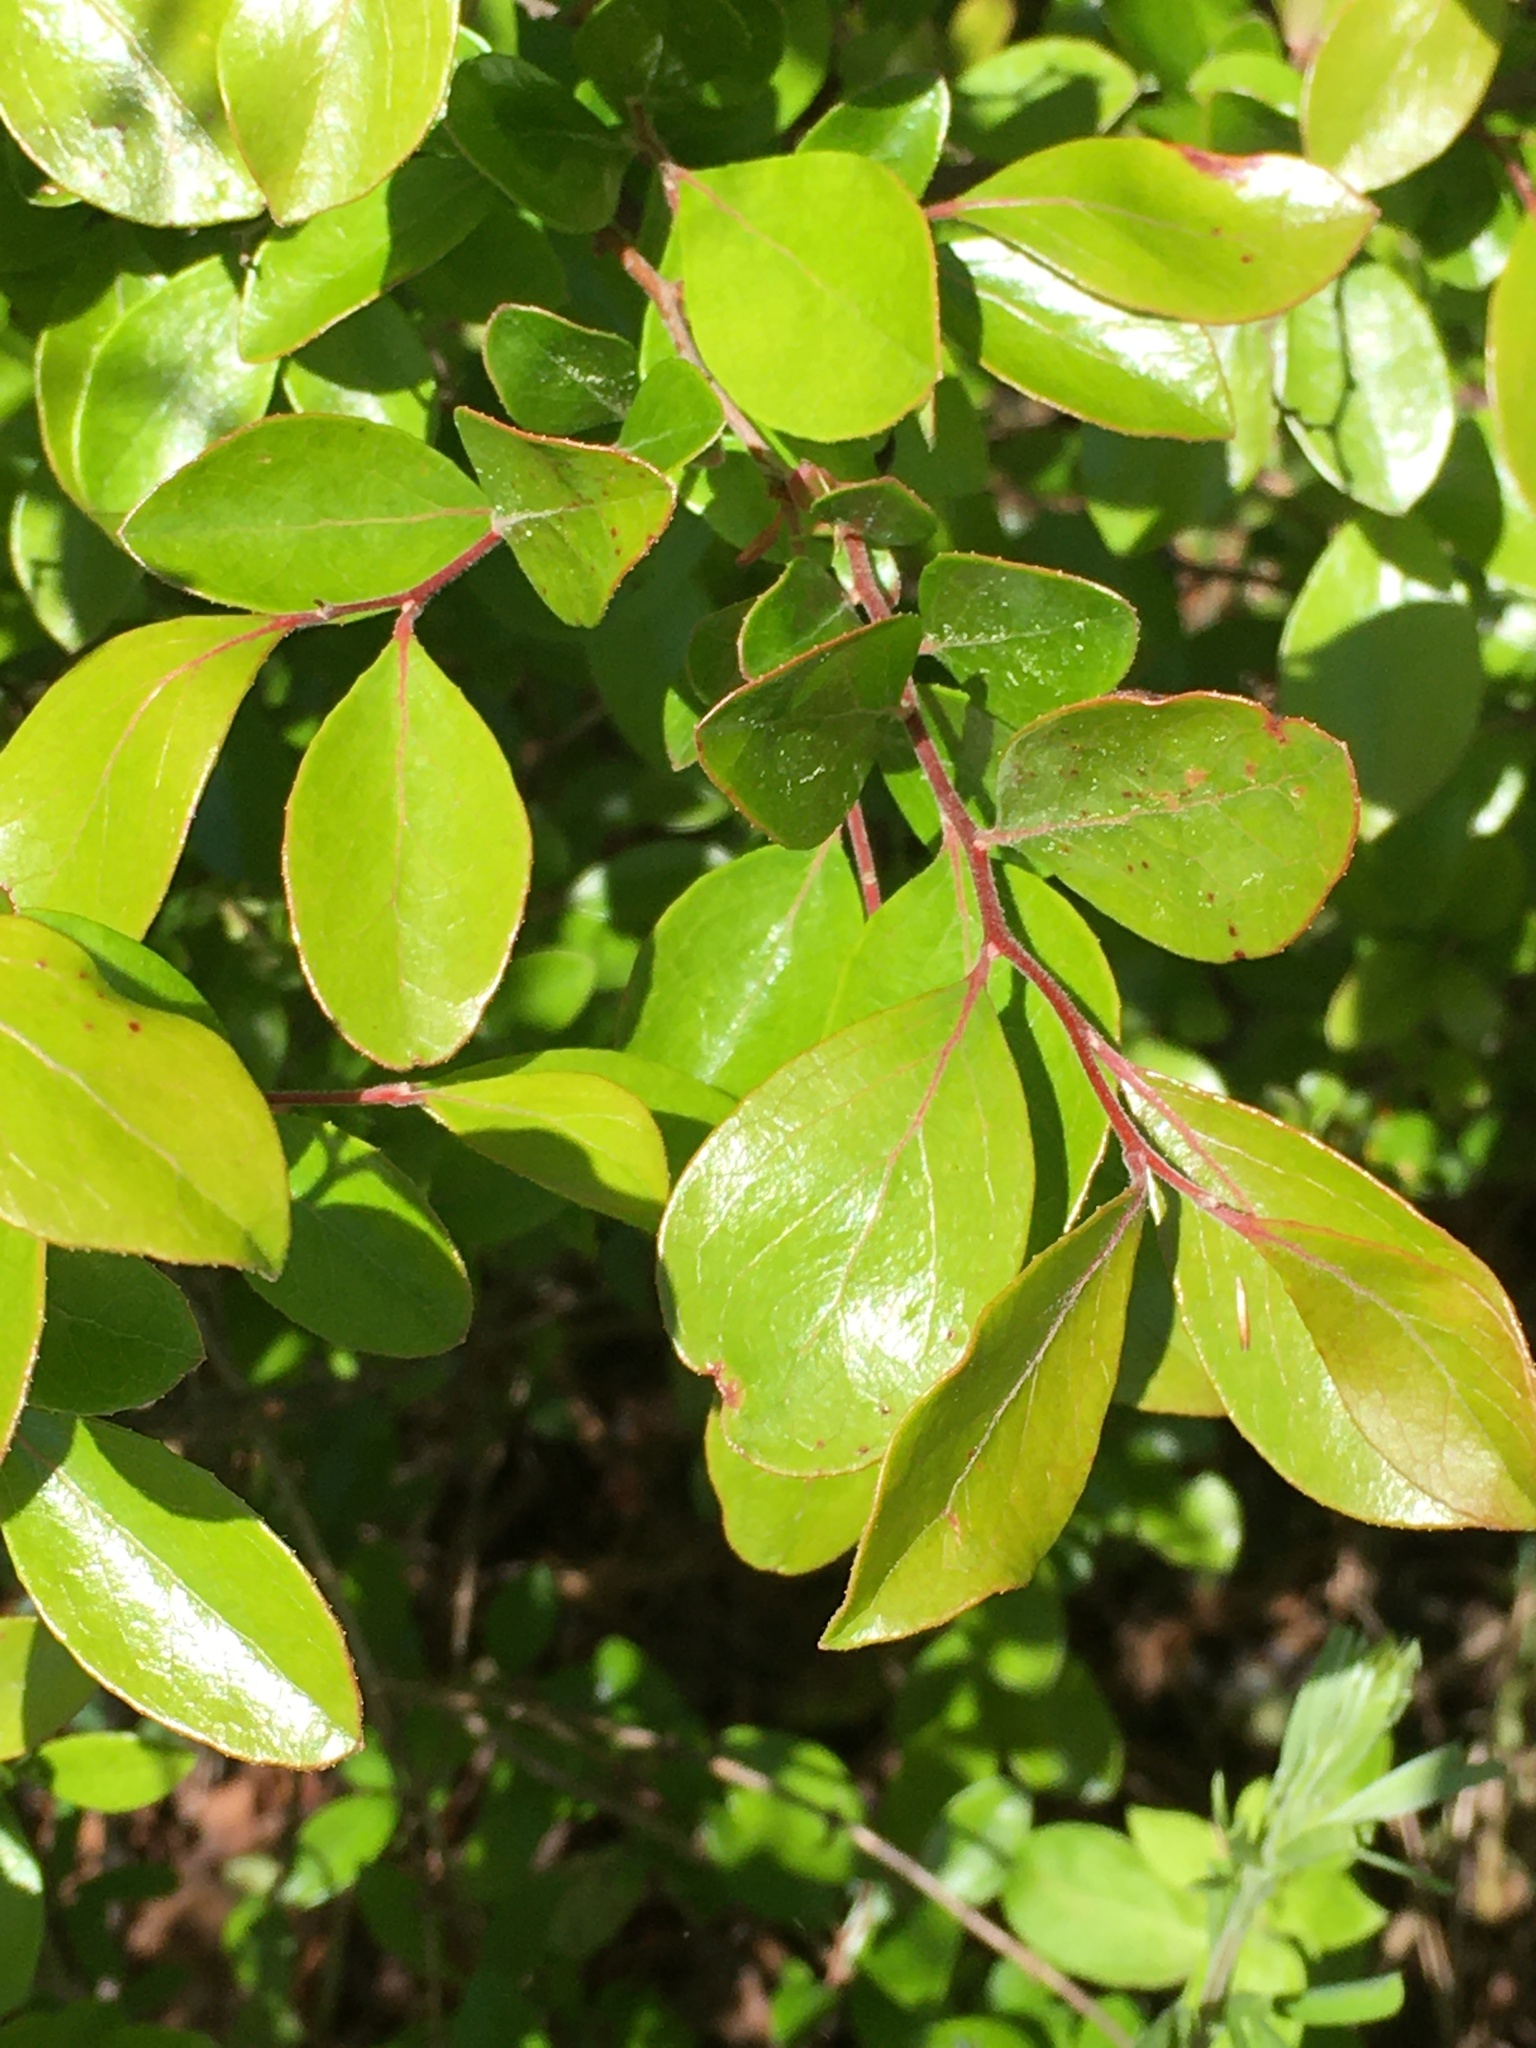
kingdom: Plantae
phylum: Tracheophyta
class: Magnoliopsida
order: Ericales
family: Ericaceae
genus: Vaccinium
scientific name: Vaccinium arboreum
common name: Farkleberry
